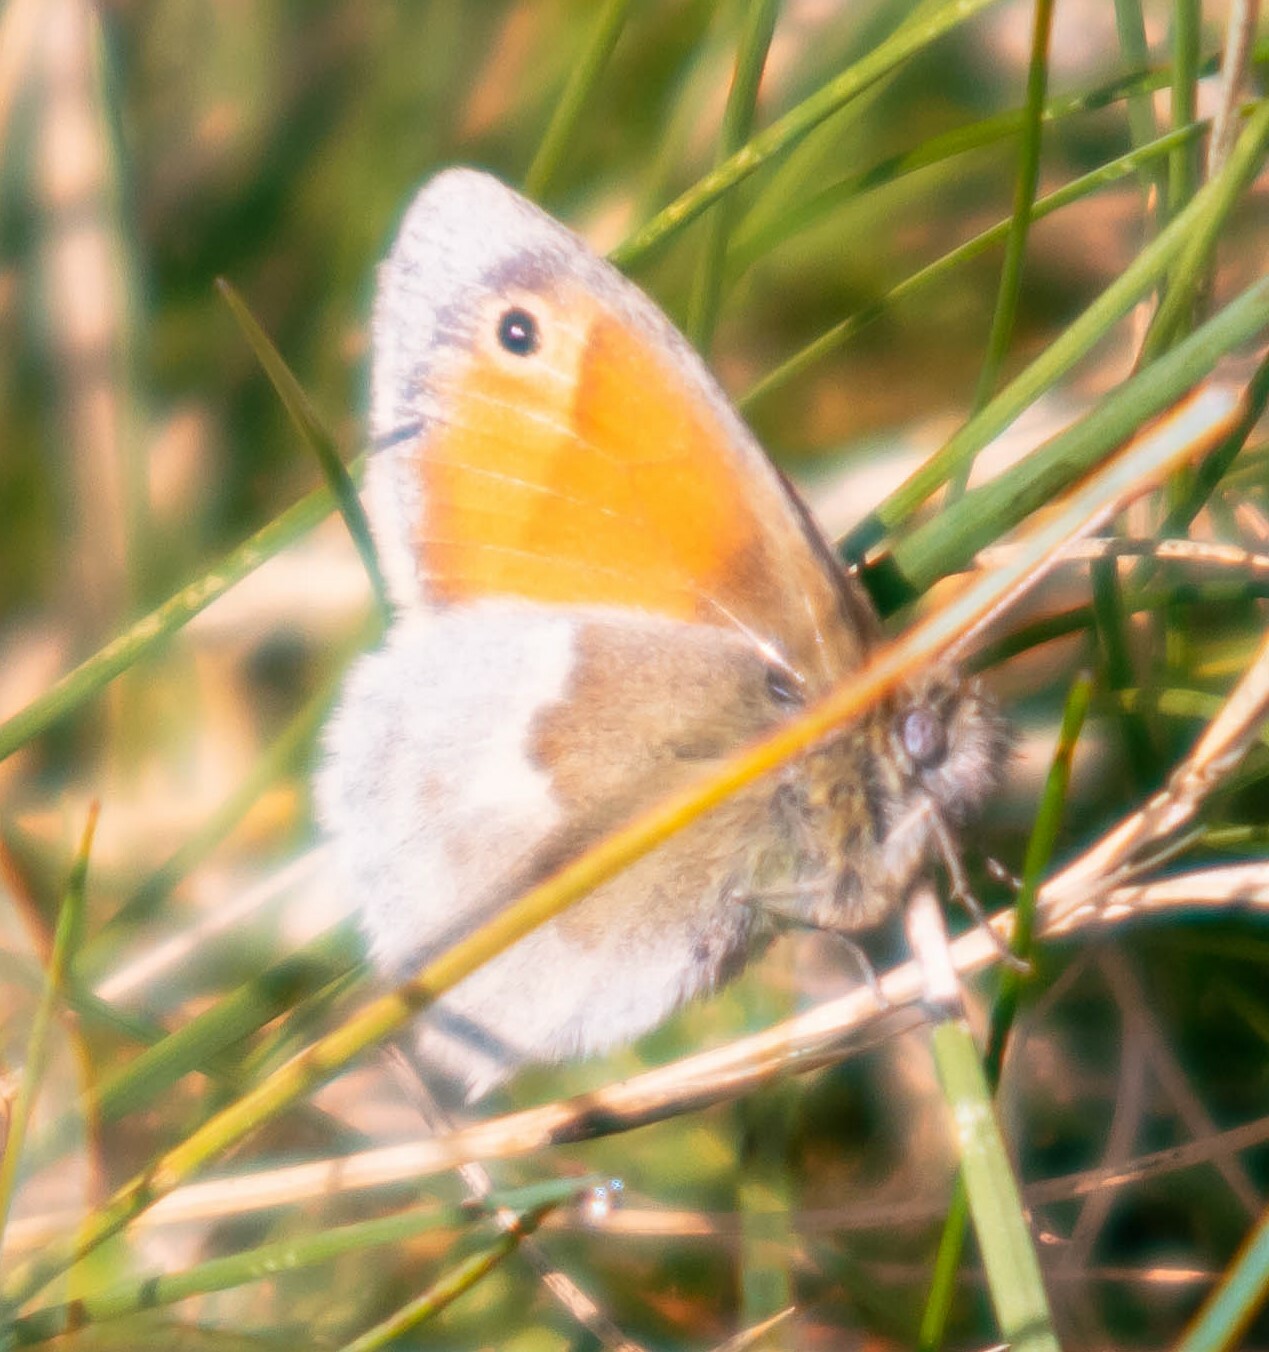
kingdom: Animalia
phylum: Arthropoda
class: Insecta
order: Lepidoptera
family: Nymphalidae
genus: Coenonympha
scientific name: Coenonympha pamphilus
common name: Small heath
